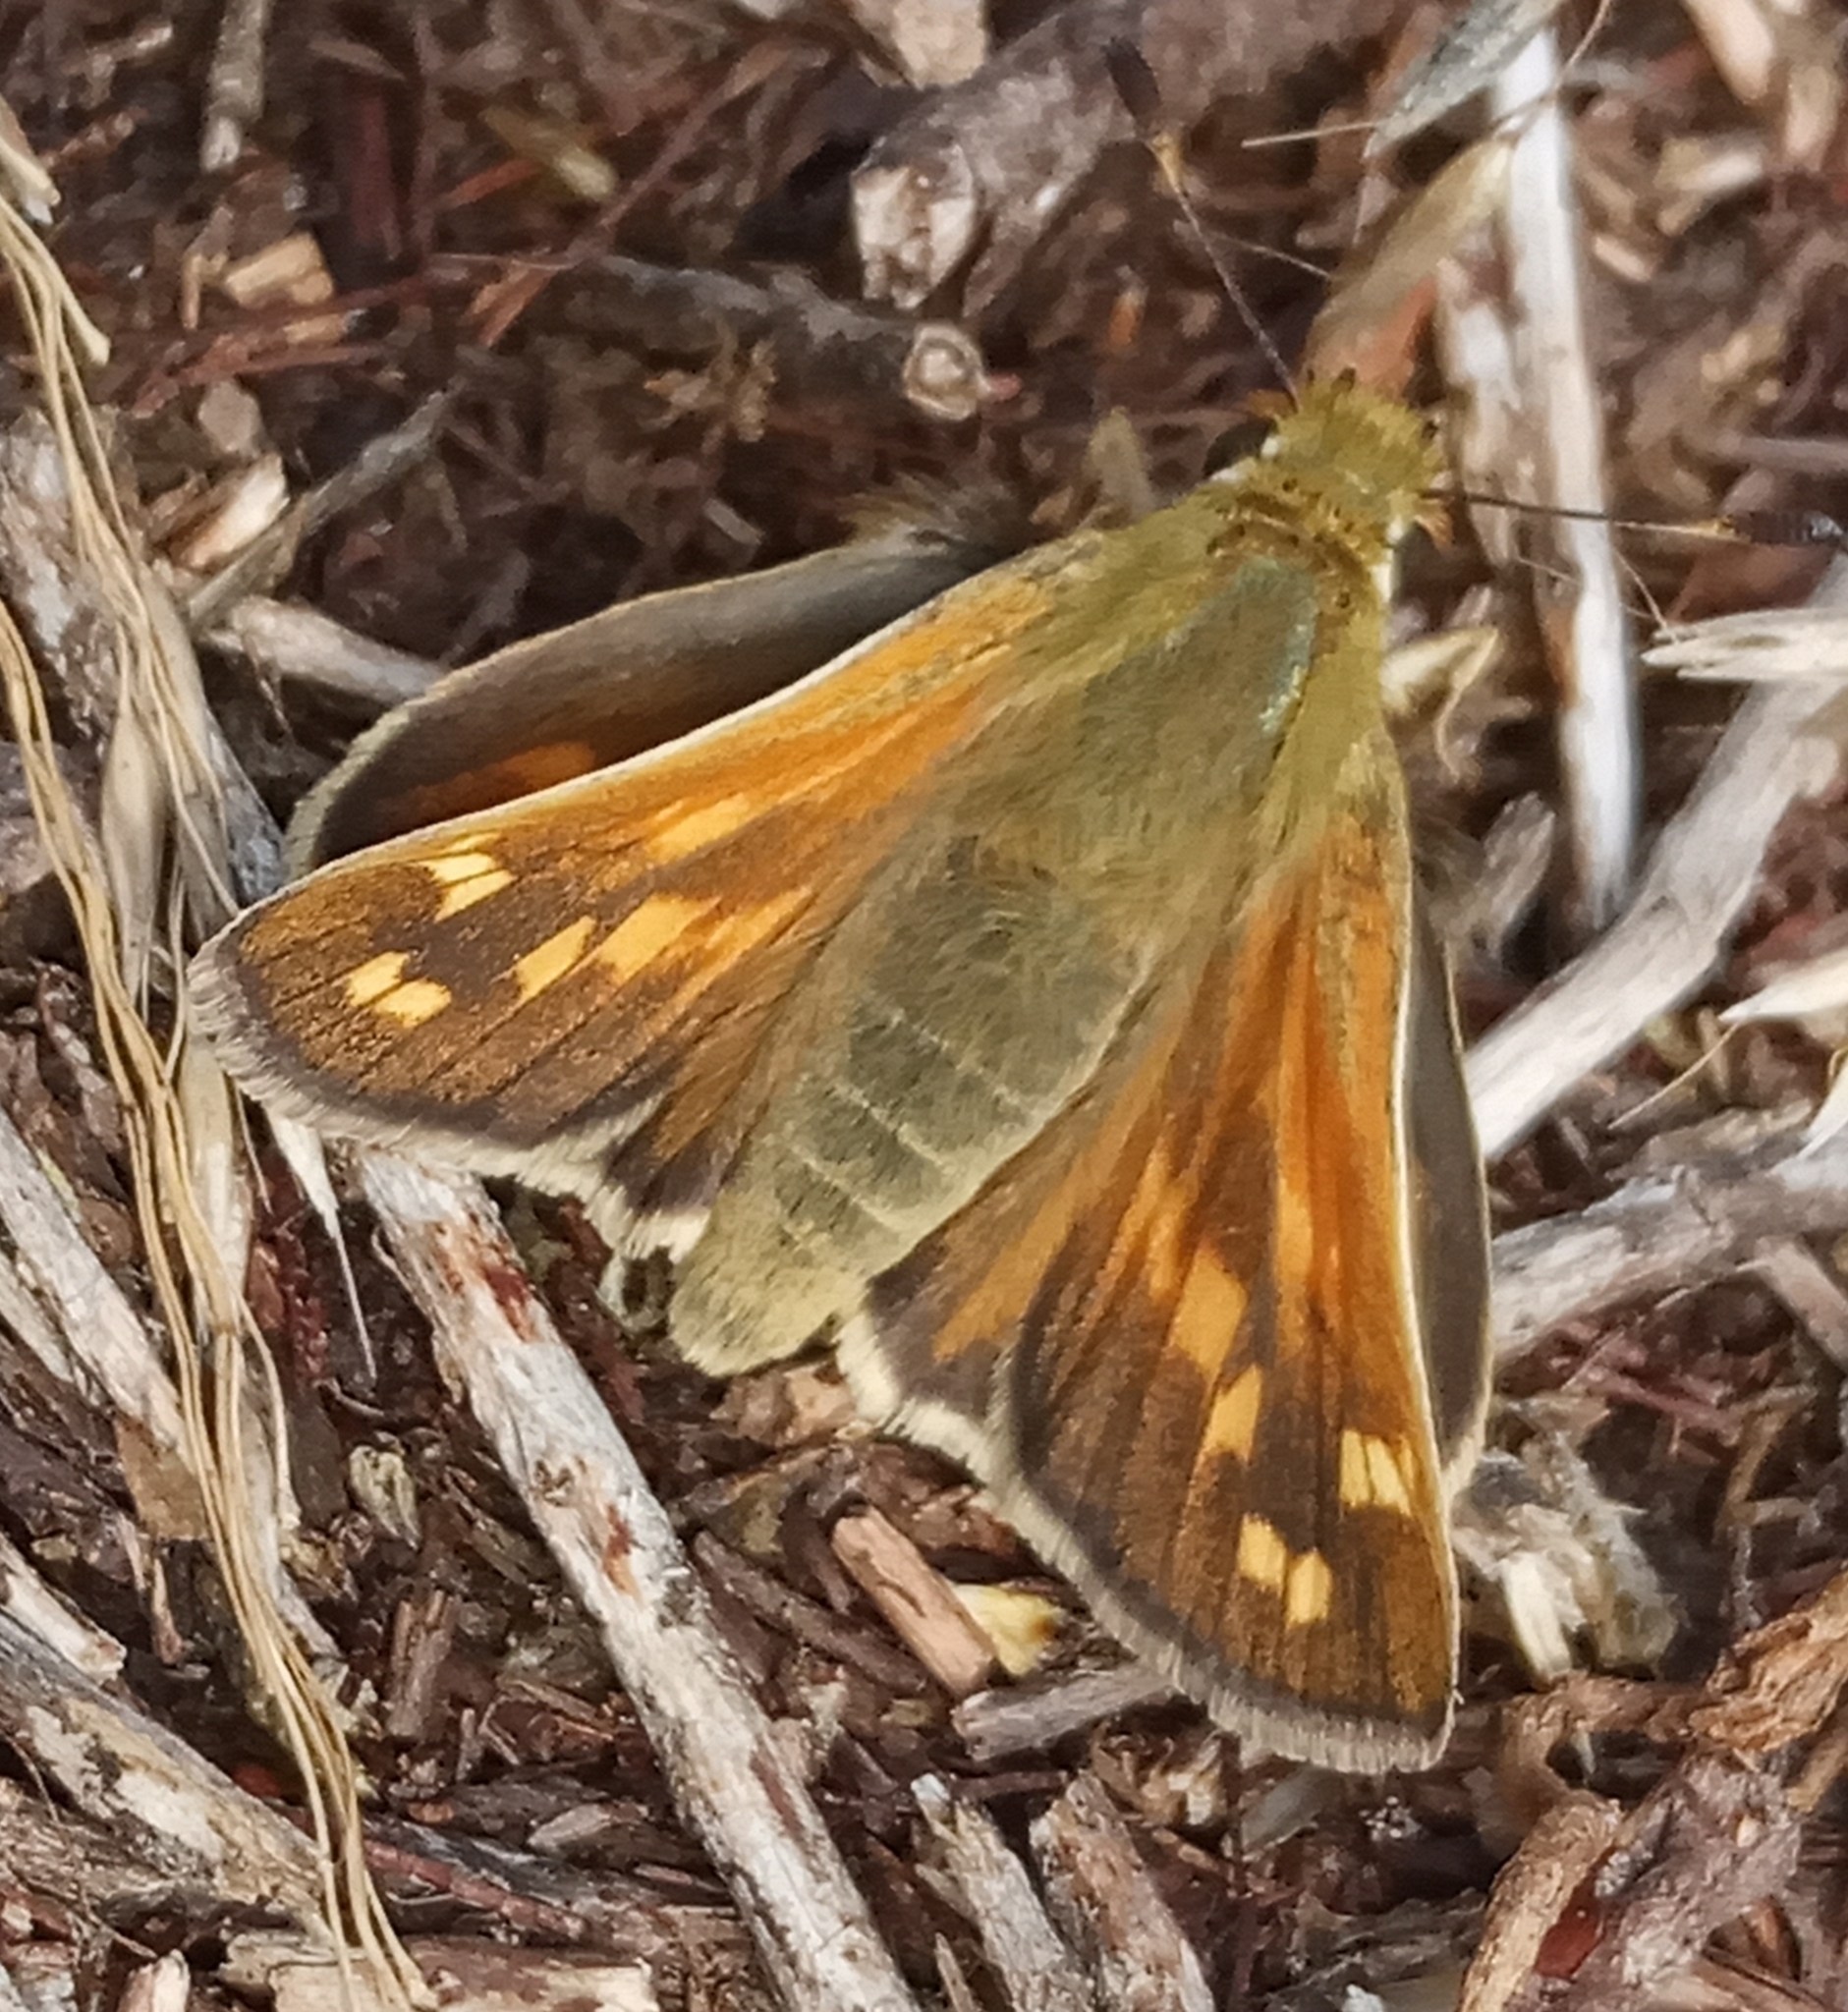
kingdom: Animalia
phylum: Arthropoda
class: Insecta
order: Lepidoptera
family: Hesperiidae
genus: Hesperia
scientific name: Hesperia comma
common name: Common branded skipper
